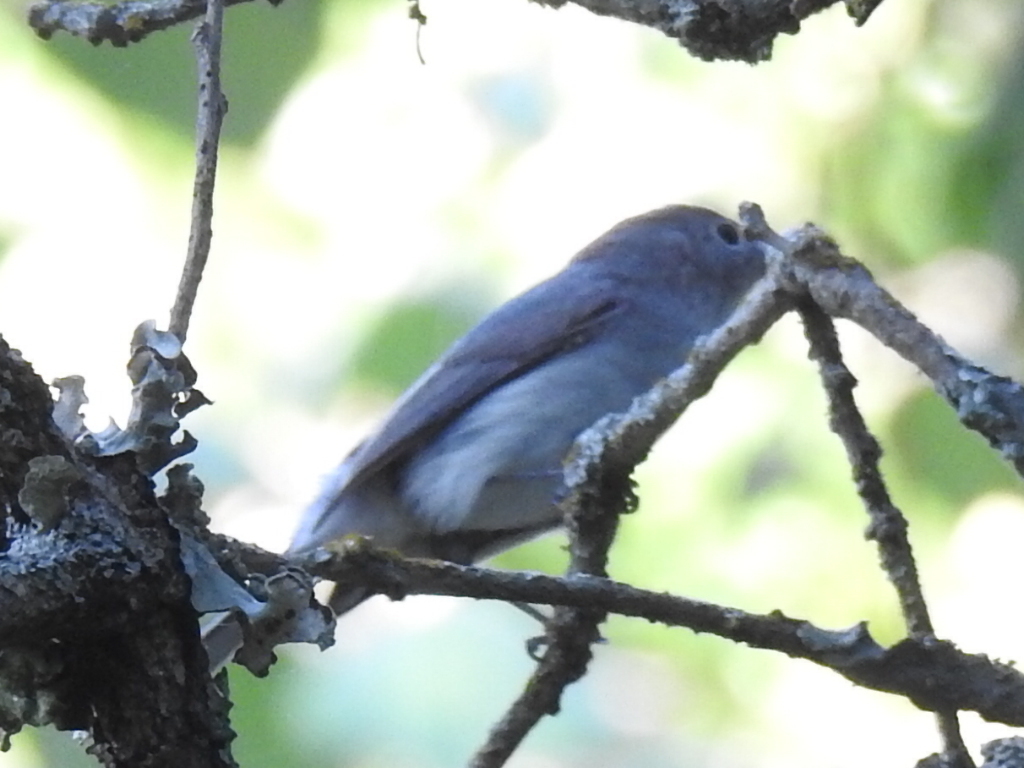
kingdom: Animalia
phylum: Chordata
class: Aves
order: Passeriformes
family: Polioptilidae
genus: Polioptila
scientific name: Polioptila caerulea
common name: Blue-gray gnatcatcher
